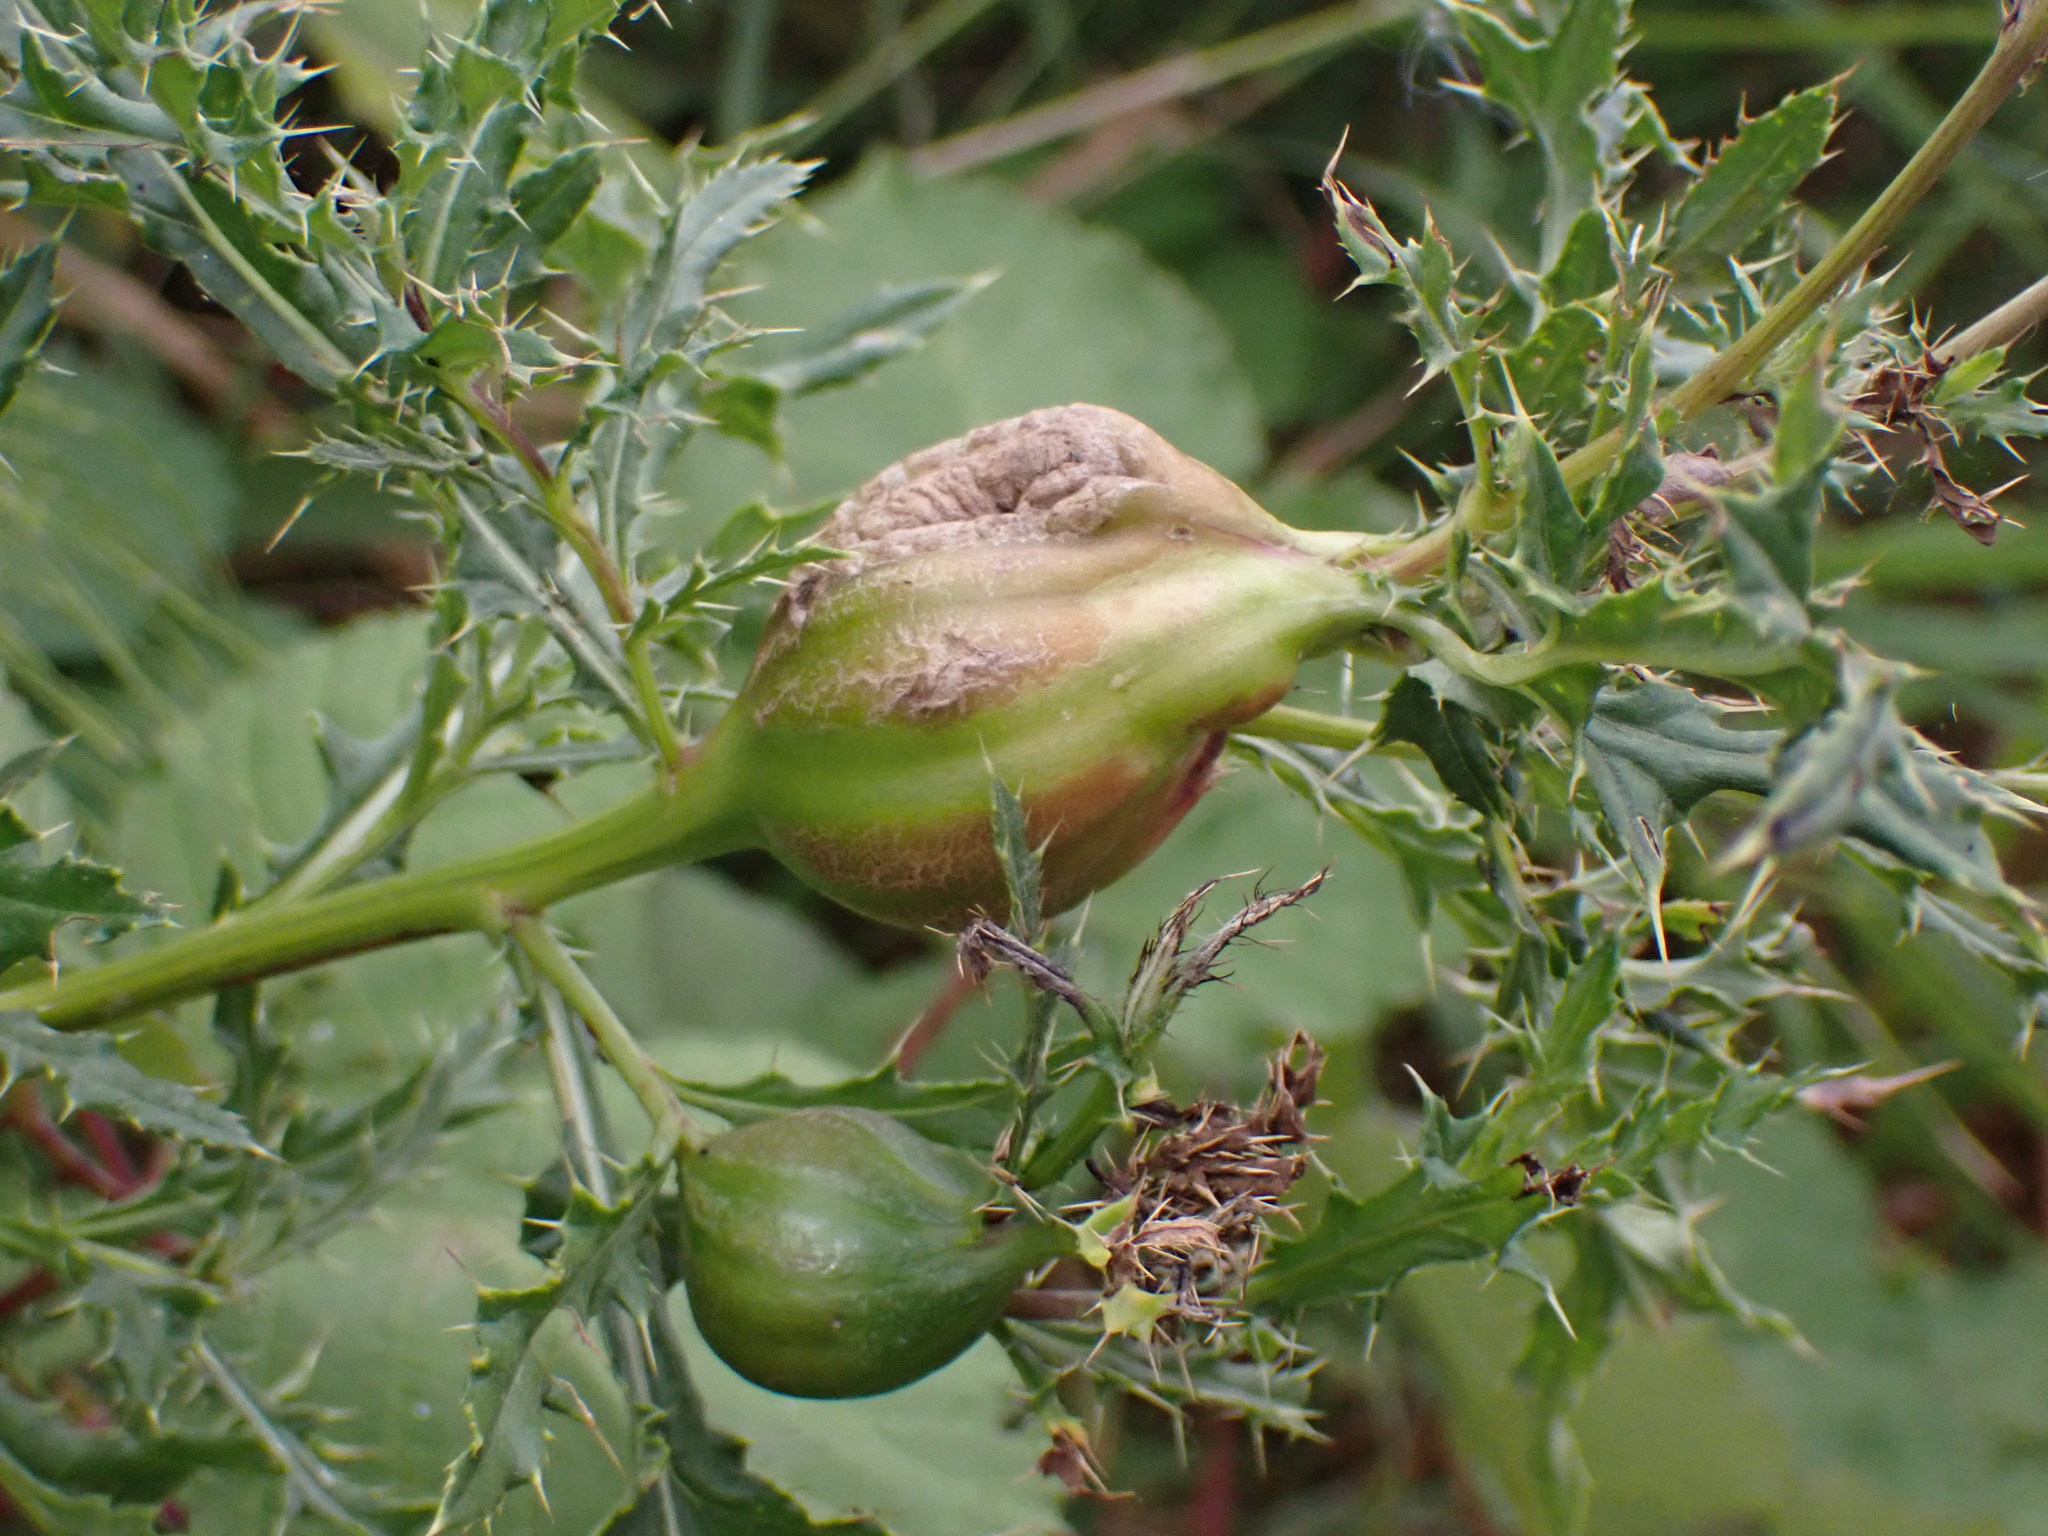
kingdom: Animalia
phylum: Arthropoda
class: Insecta
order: Diptera
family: Tephritidae
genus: Urophora
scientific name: Urophora cardui
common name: Fruit fly
